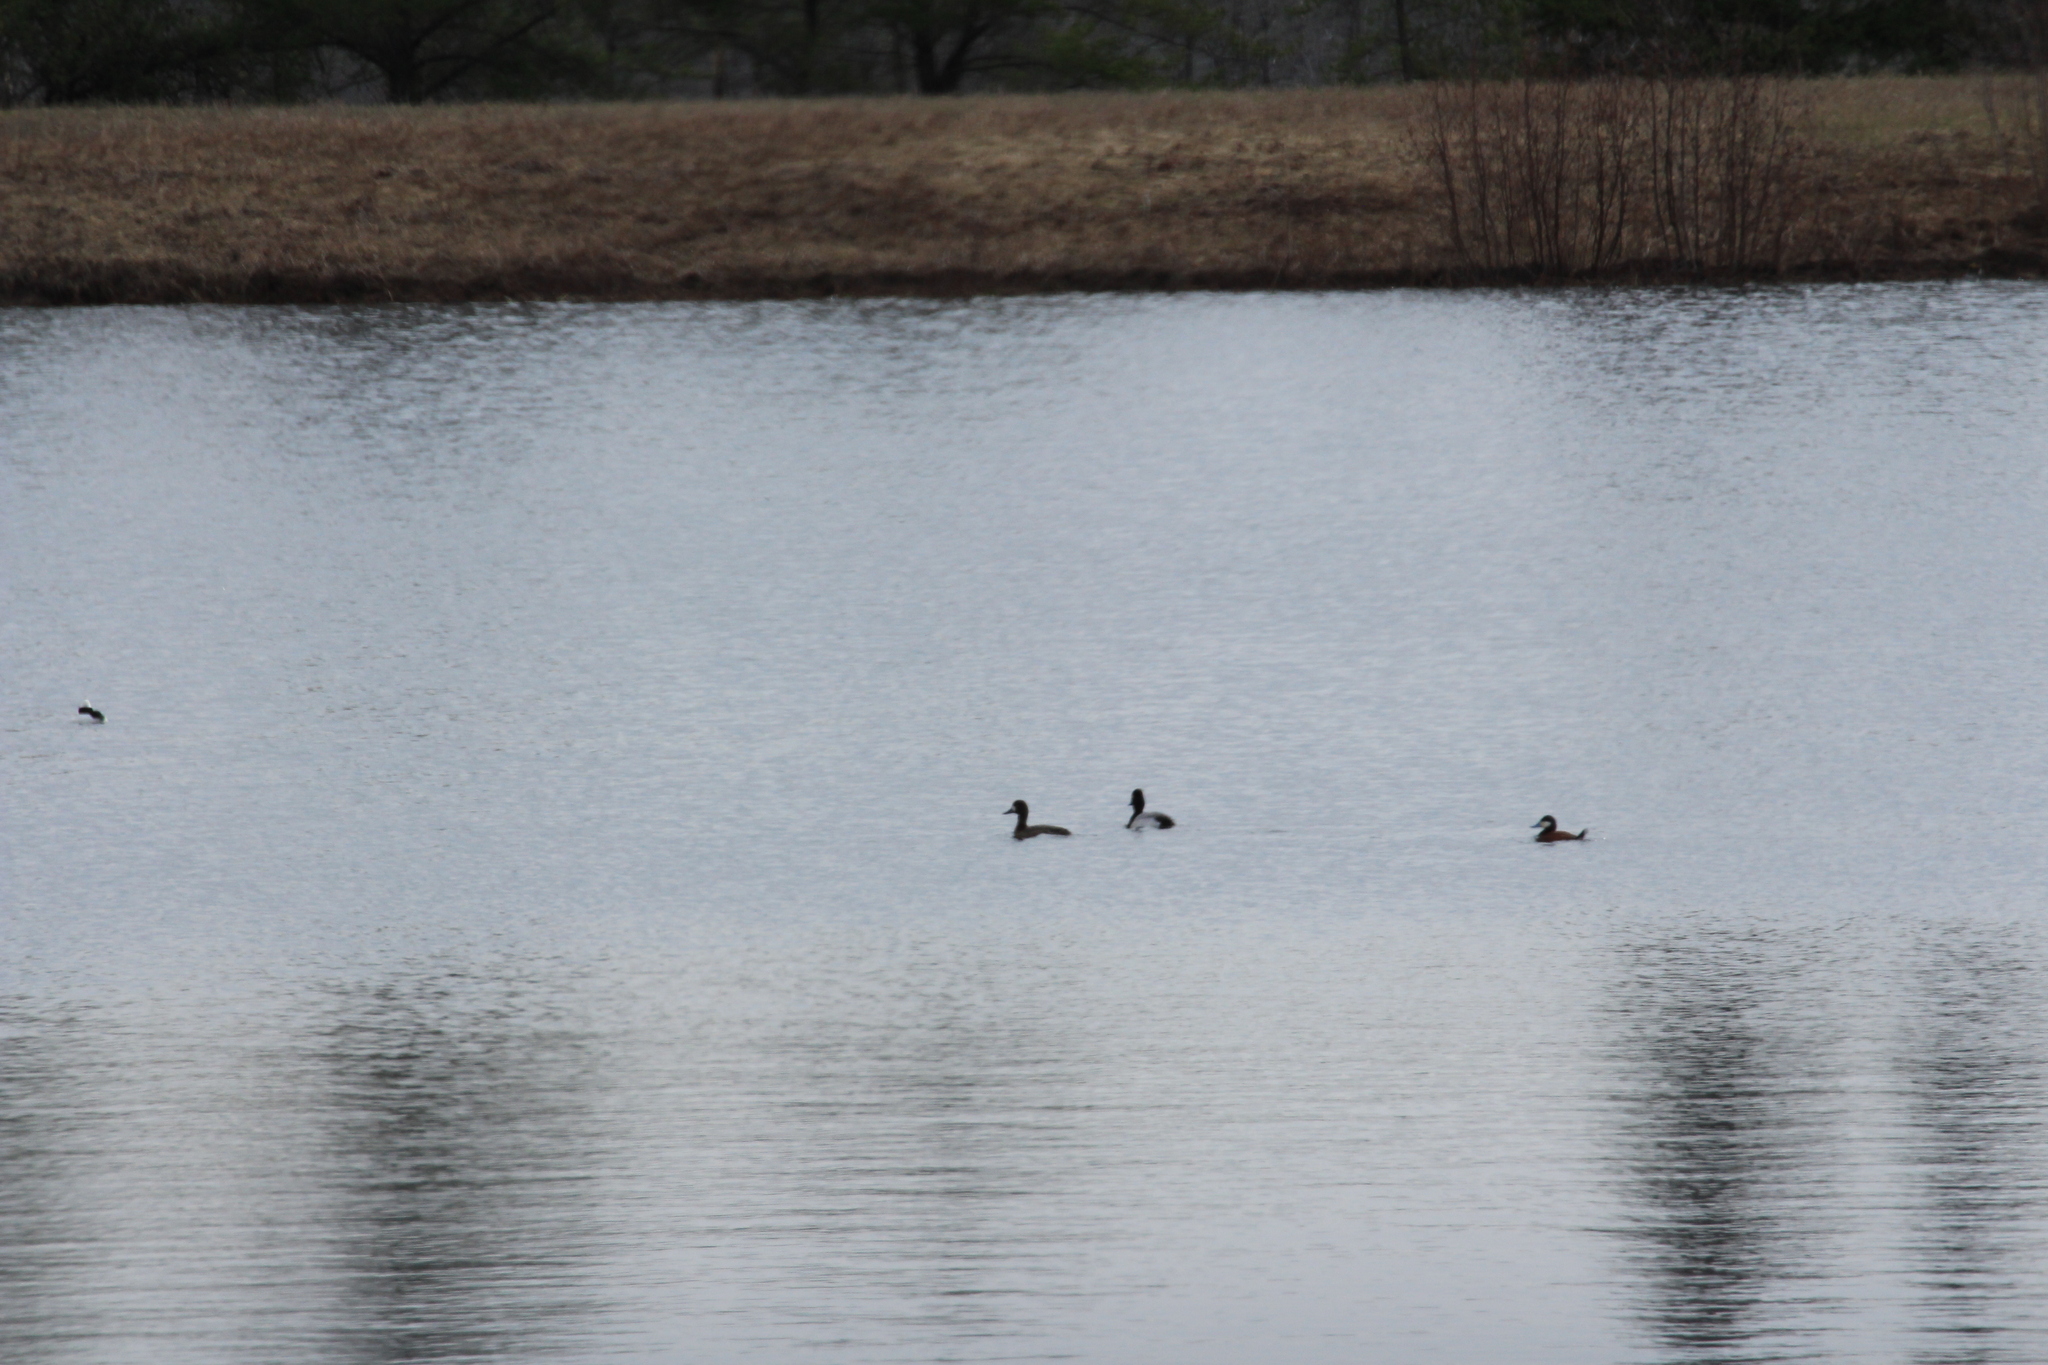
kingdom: Animalia
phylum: Chordata
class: Aves
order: Anseriformes
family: Anatidae
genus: Oxyura
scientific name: Oxyura jamaicensis
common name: Ruddy duck
